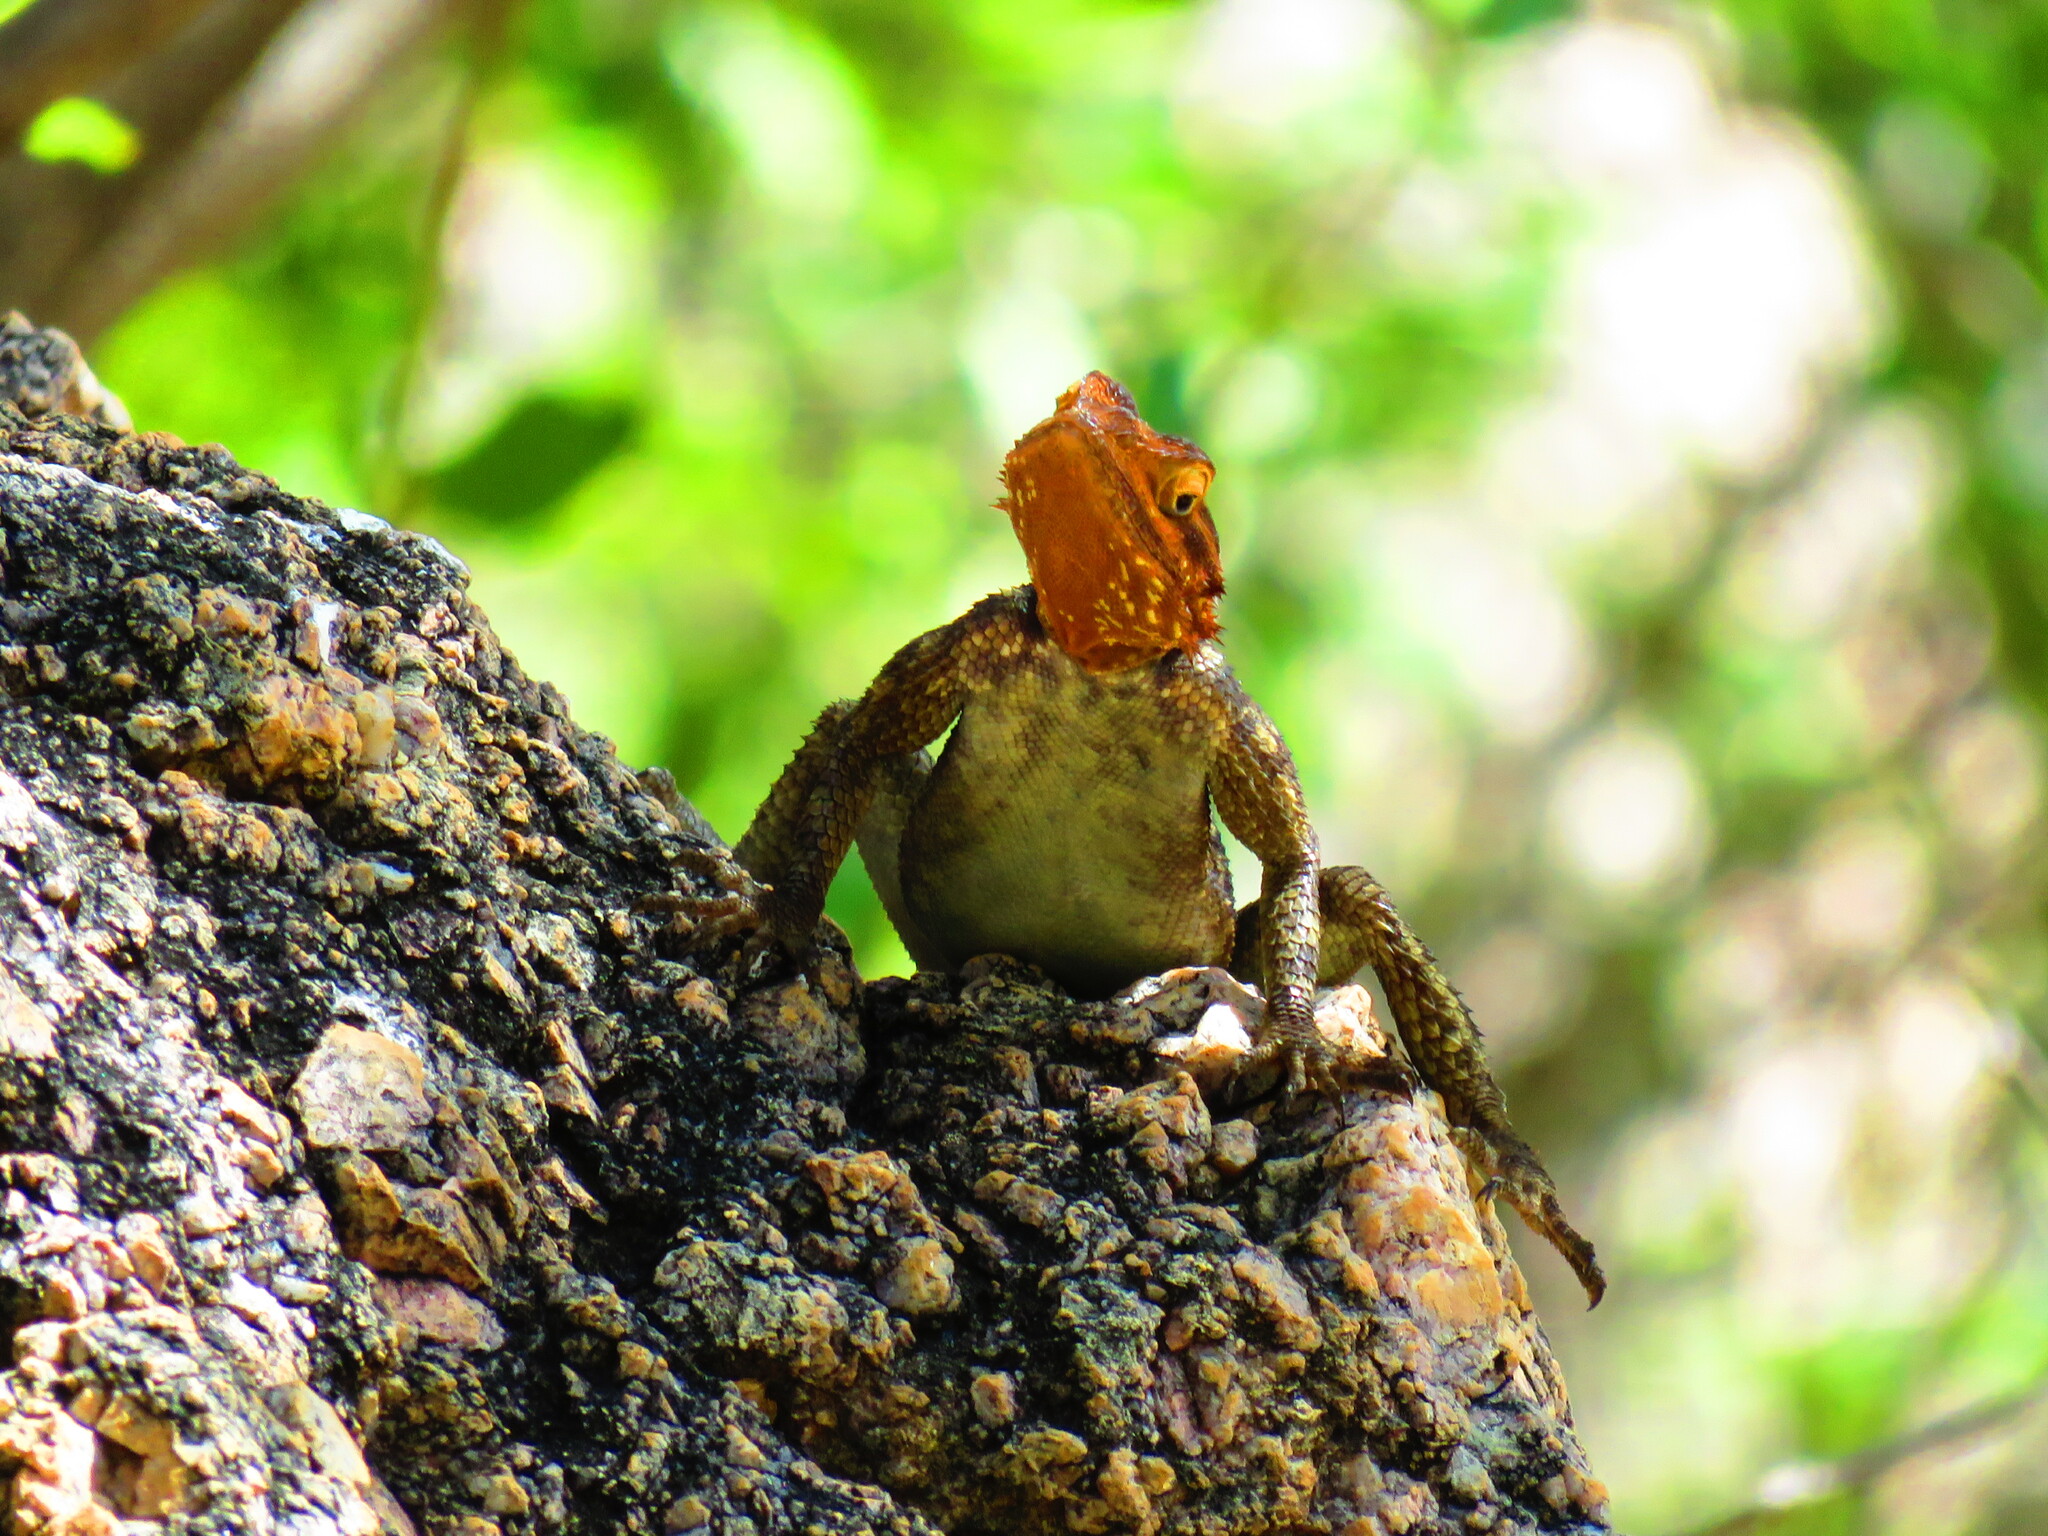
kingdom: Animalia
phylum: Chordata
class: Squamata
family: Agamidae
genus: Agama
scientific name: Agama planiceps
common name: Namib rock agama
